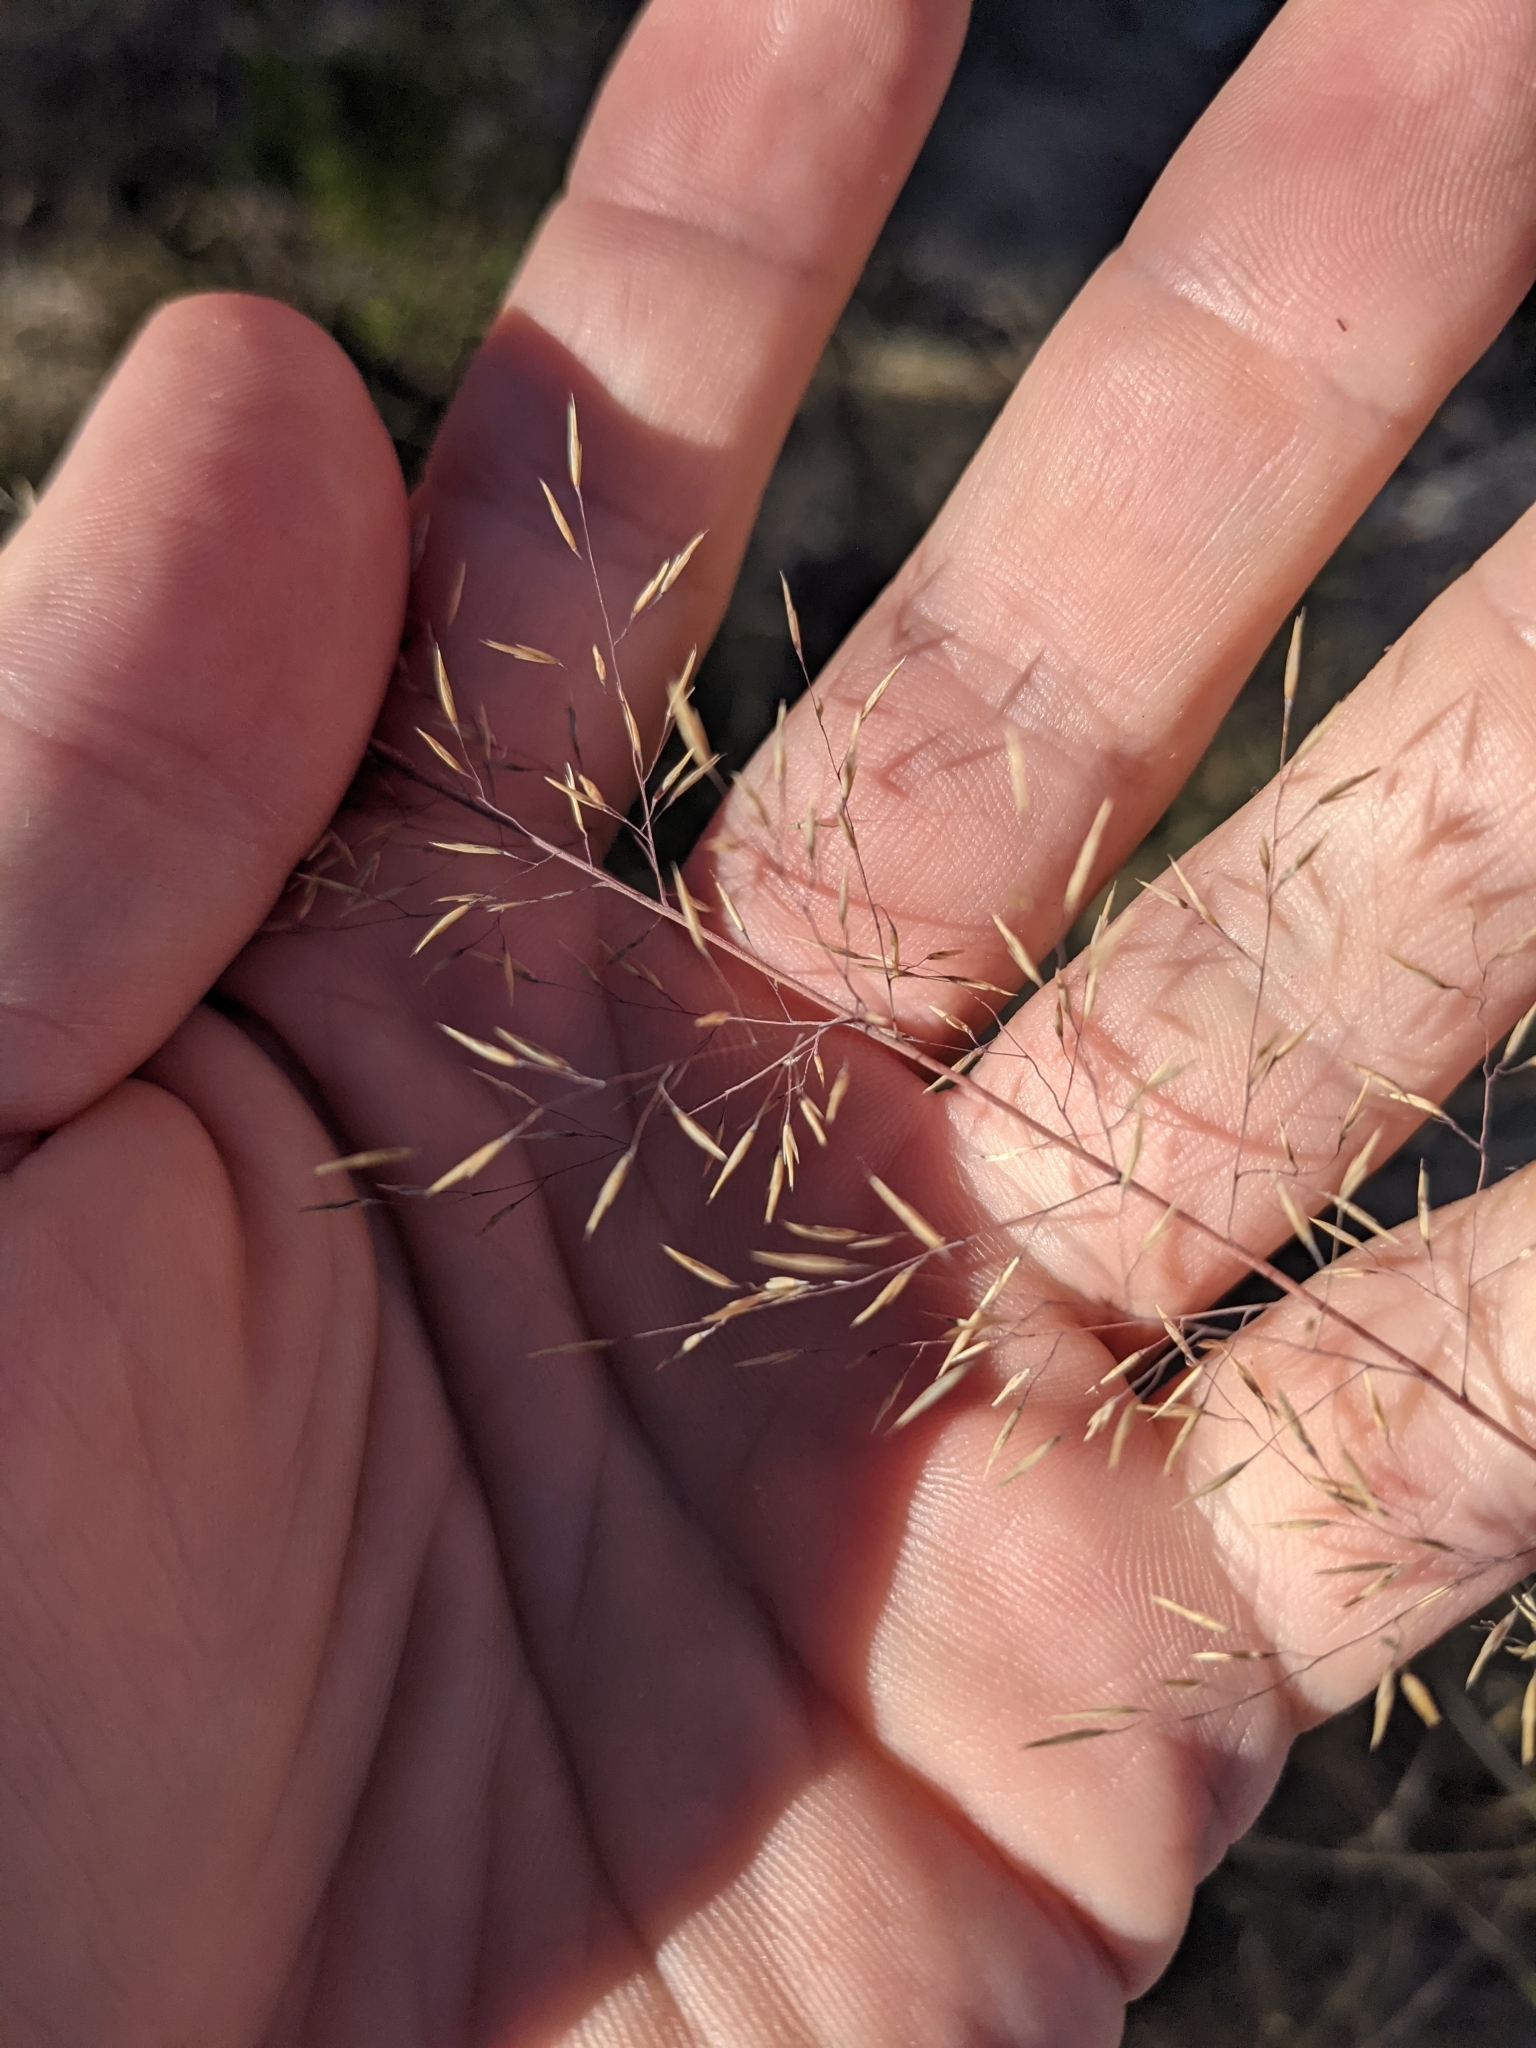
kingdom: Plantae
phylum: Tracheophyta
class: Liliopsida
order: Poales
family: Poaceae
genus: Muhlenbergia
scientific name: Muhlenbergia involuta
